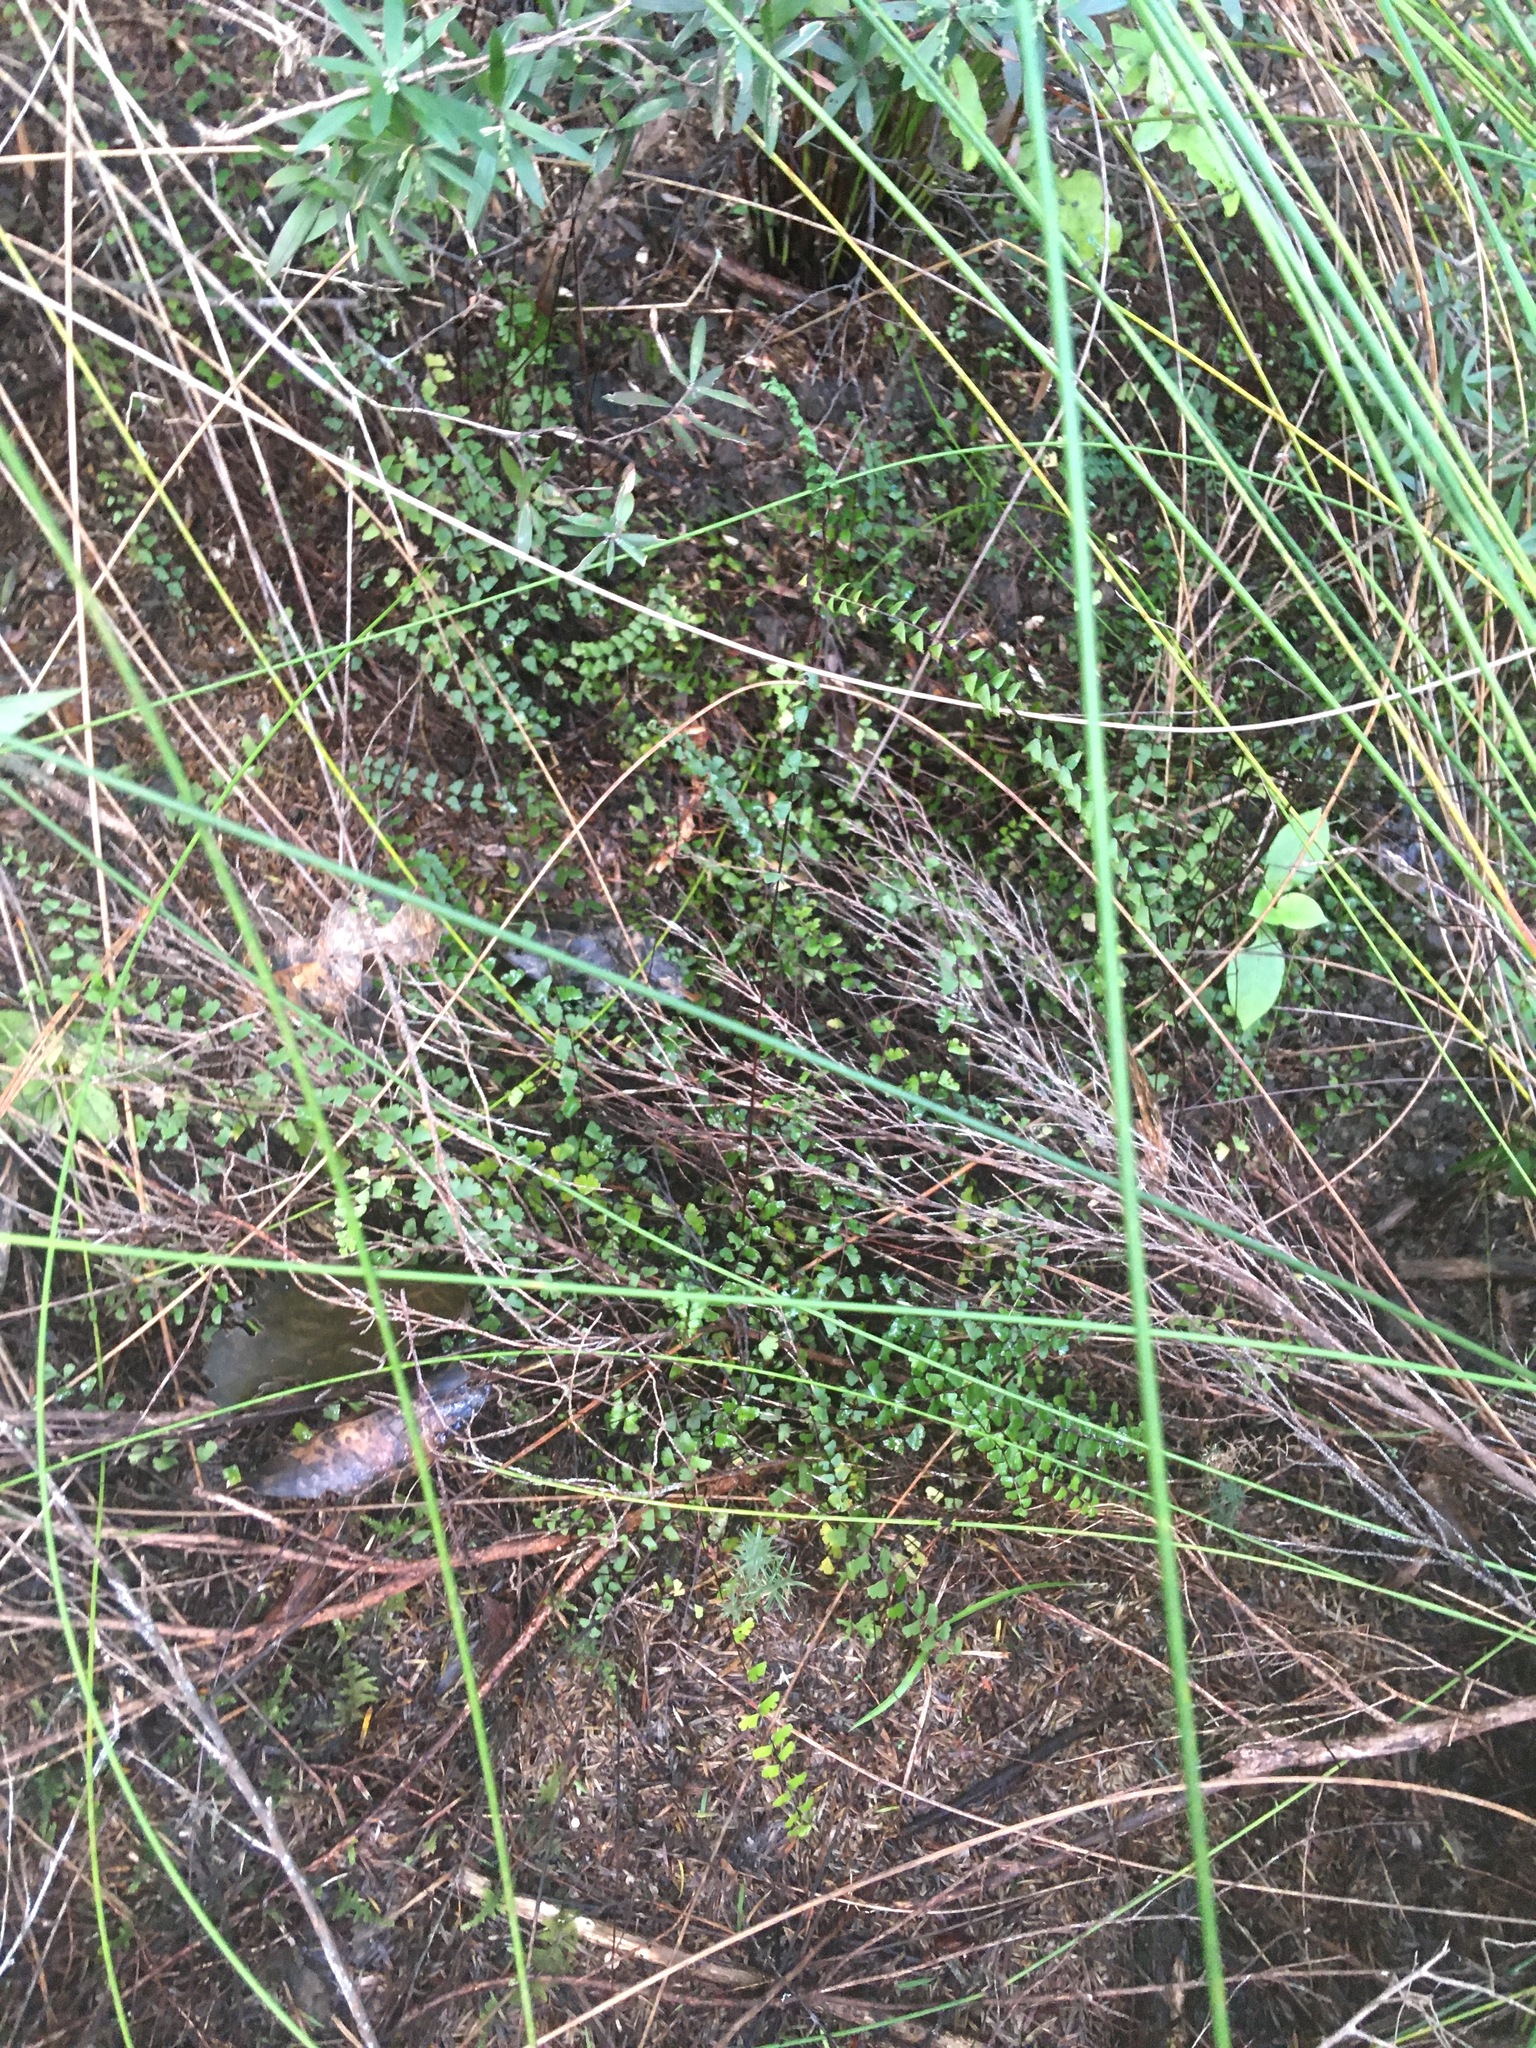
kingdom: Plantae
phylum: Tracheophyta
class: Polypodiopsida
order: Polypodiales
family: Lindsaeaceae
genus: Lindsaea
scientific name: Lindsaea linearis
